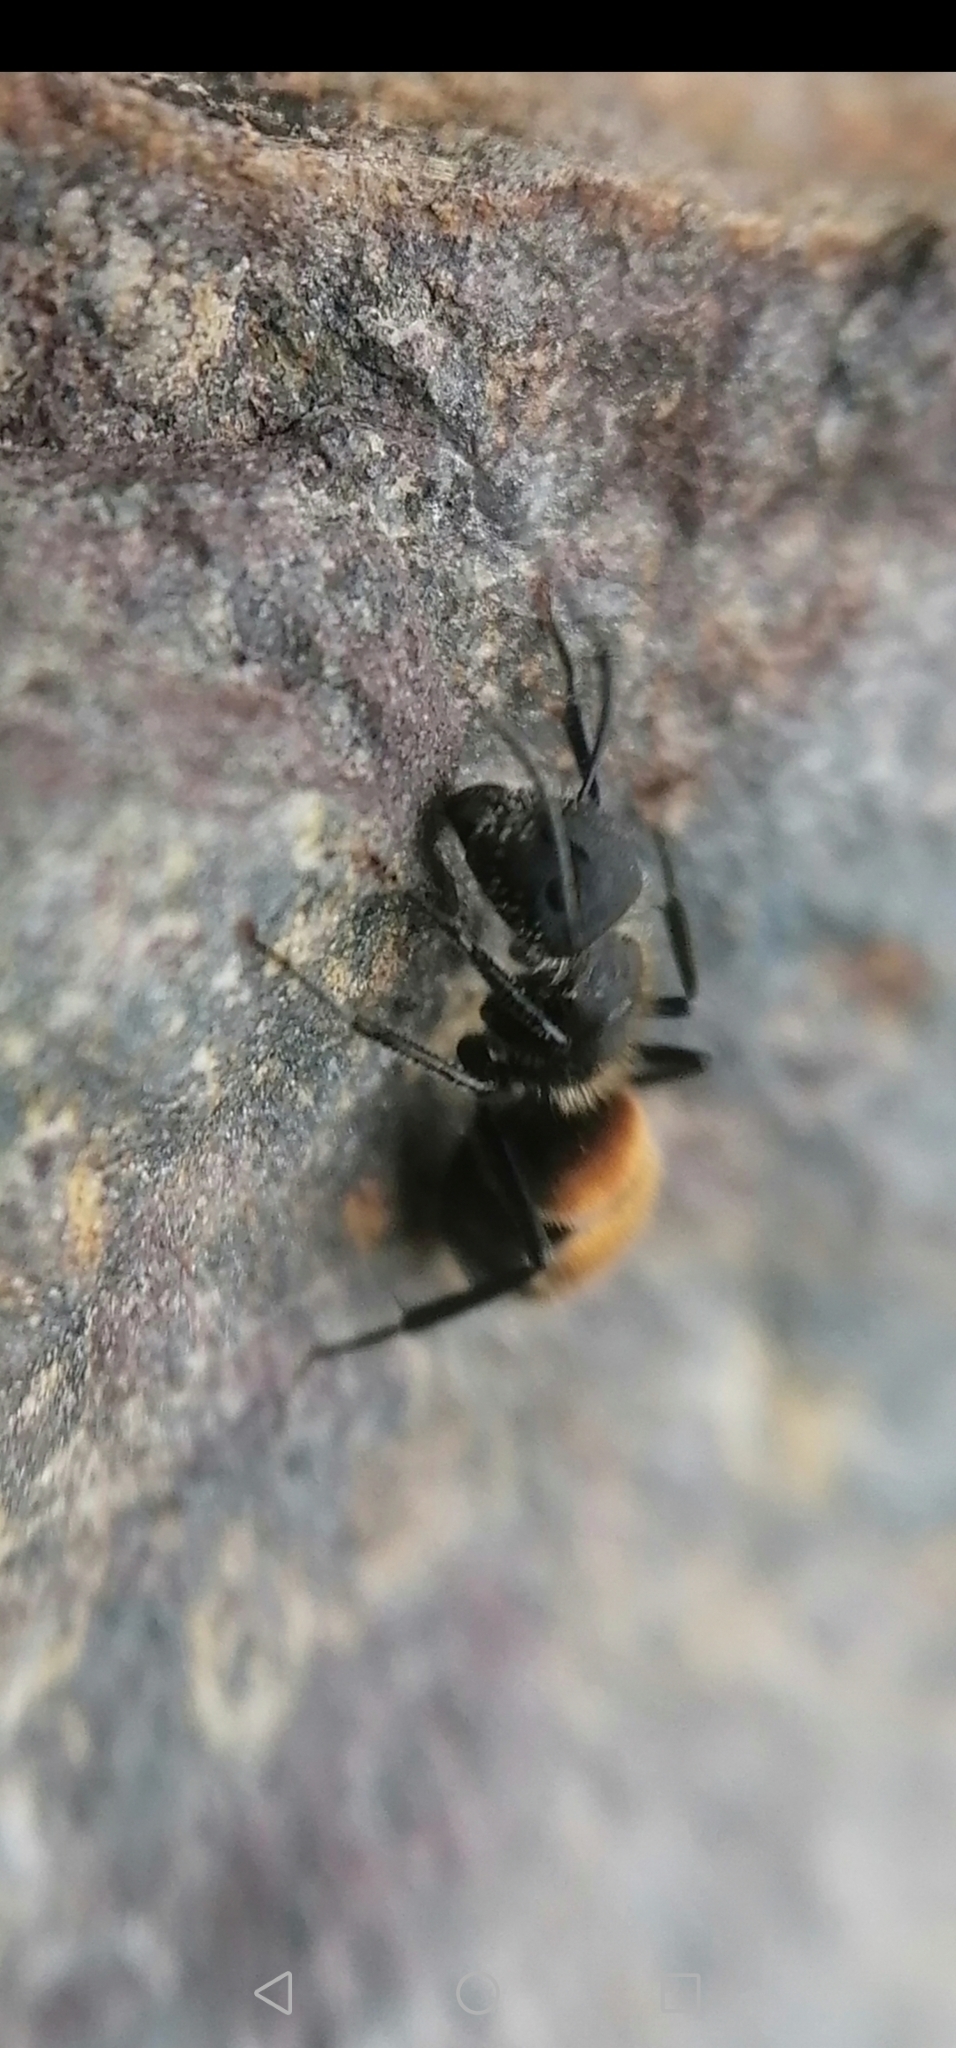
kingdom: Animalia
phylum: Arthropoda
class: Insecta
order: Hymenoptera
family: Formicidae
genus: Camponotus
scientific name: Camponotus mus
